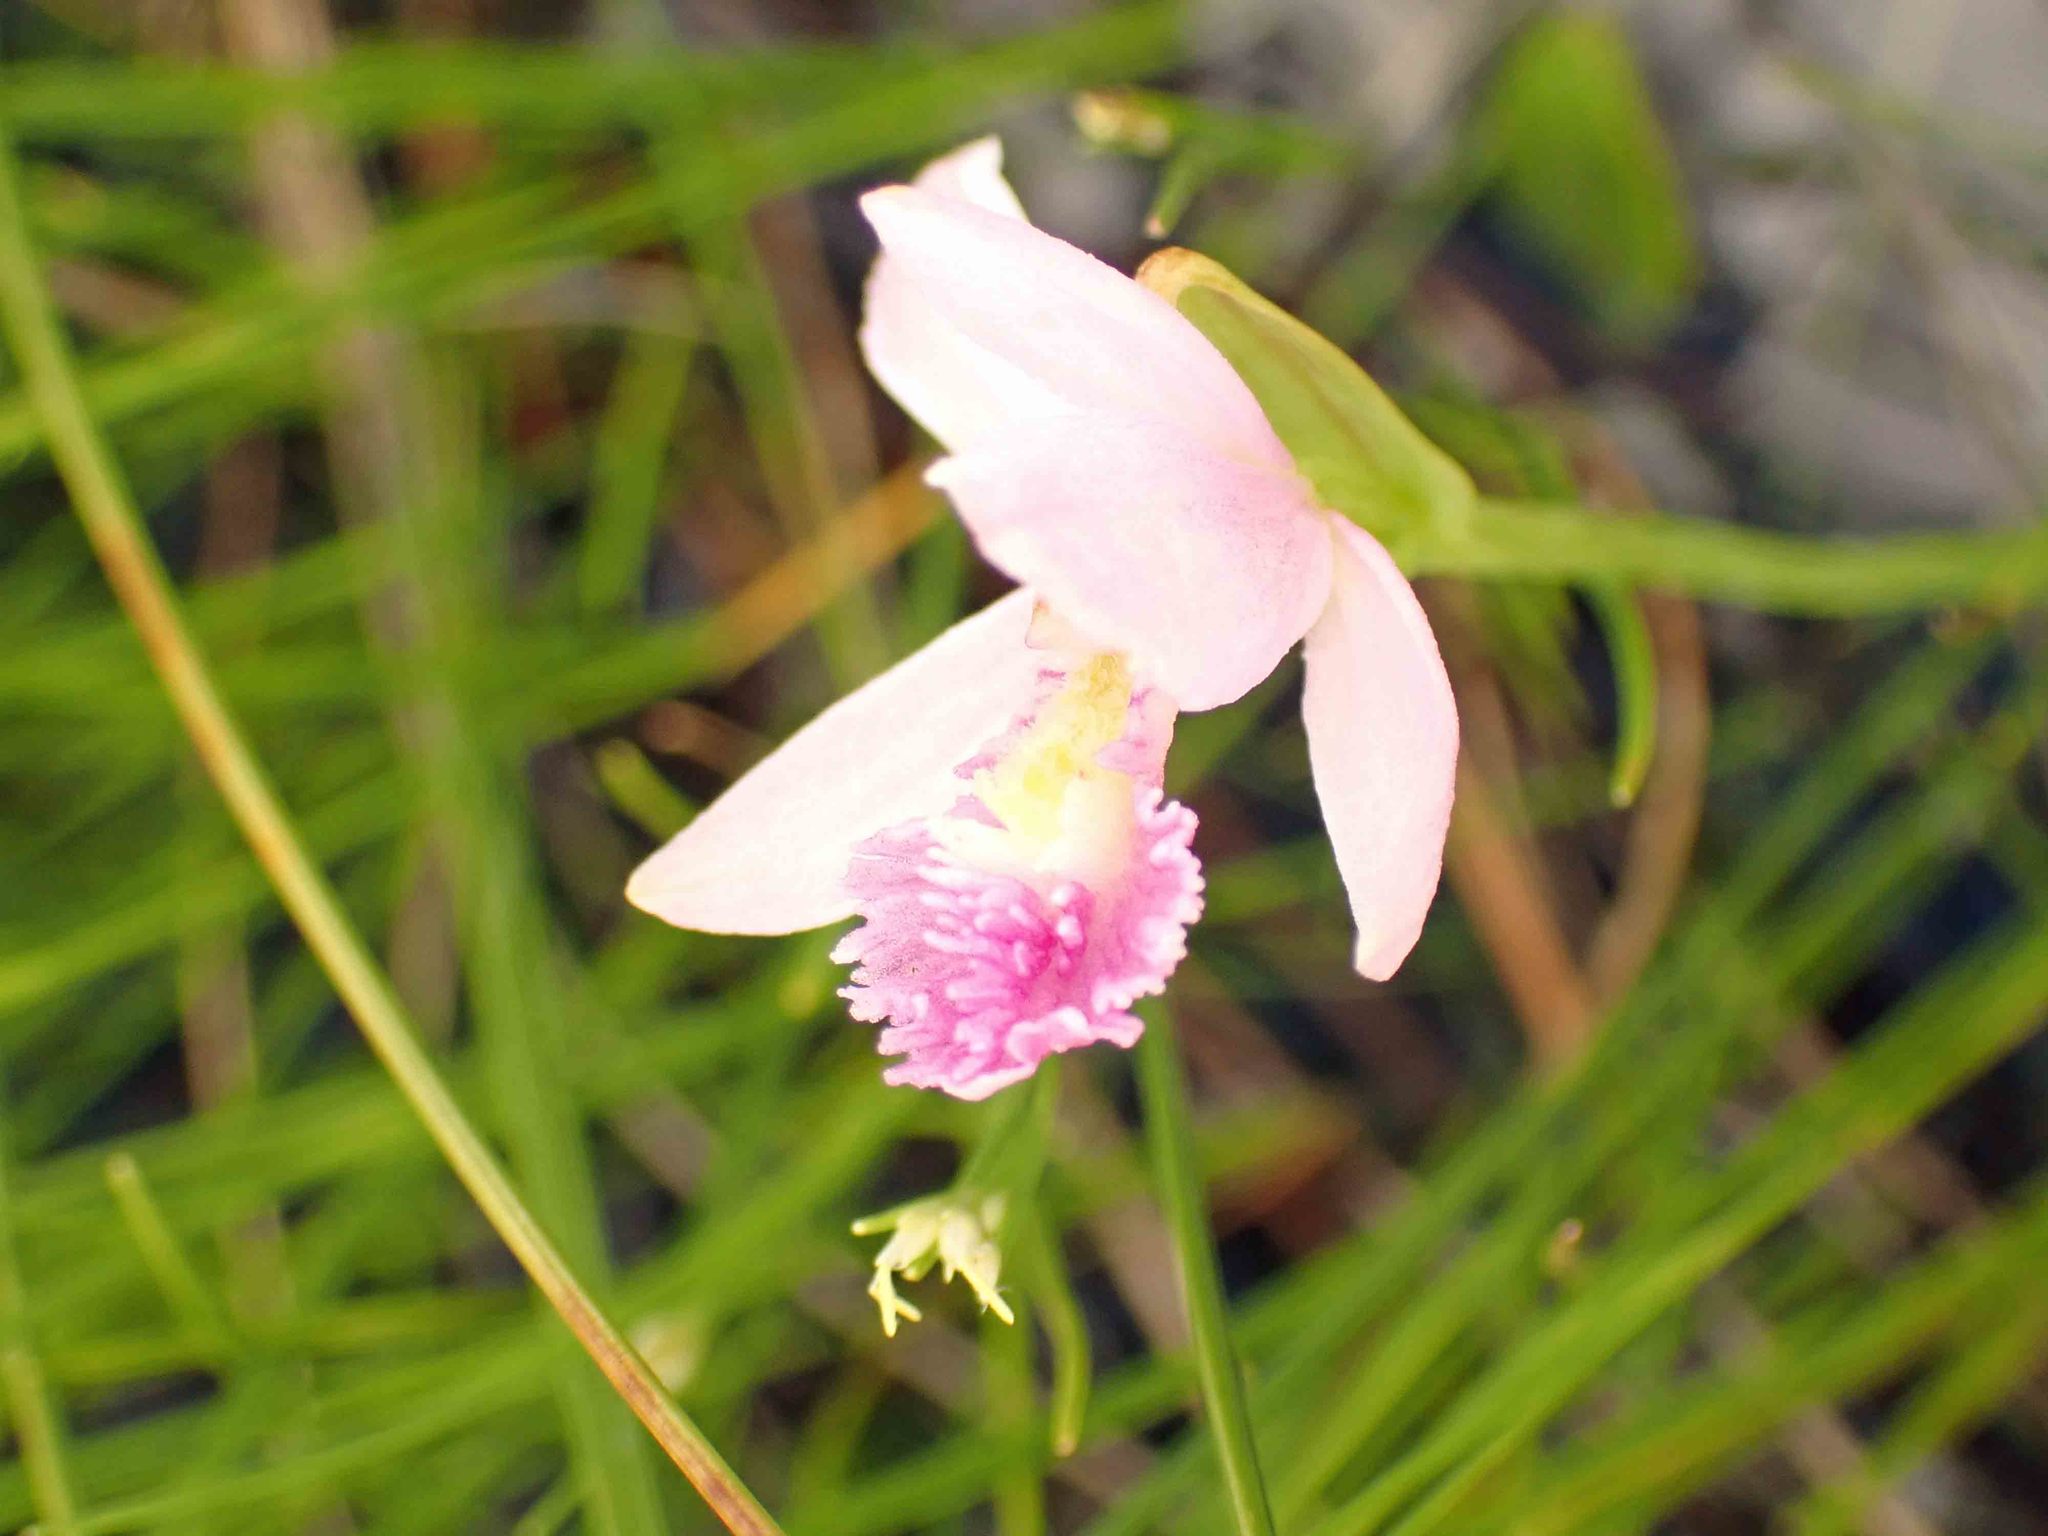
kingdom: Plantae
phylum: Tracheophyta
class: Liliopsida
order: Asparagales
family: Orchidaceae
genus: Pogonia
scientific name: Pogonia ophioglossoides
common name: Rose pogonia
